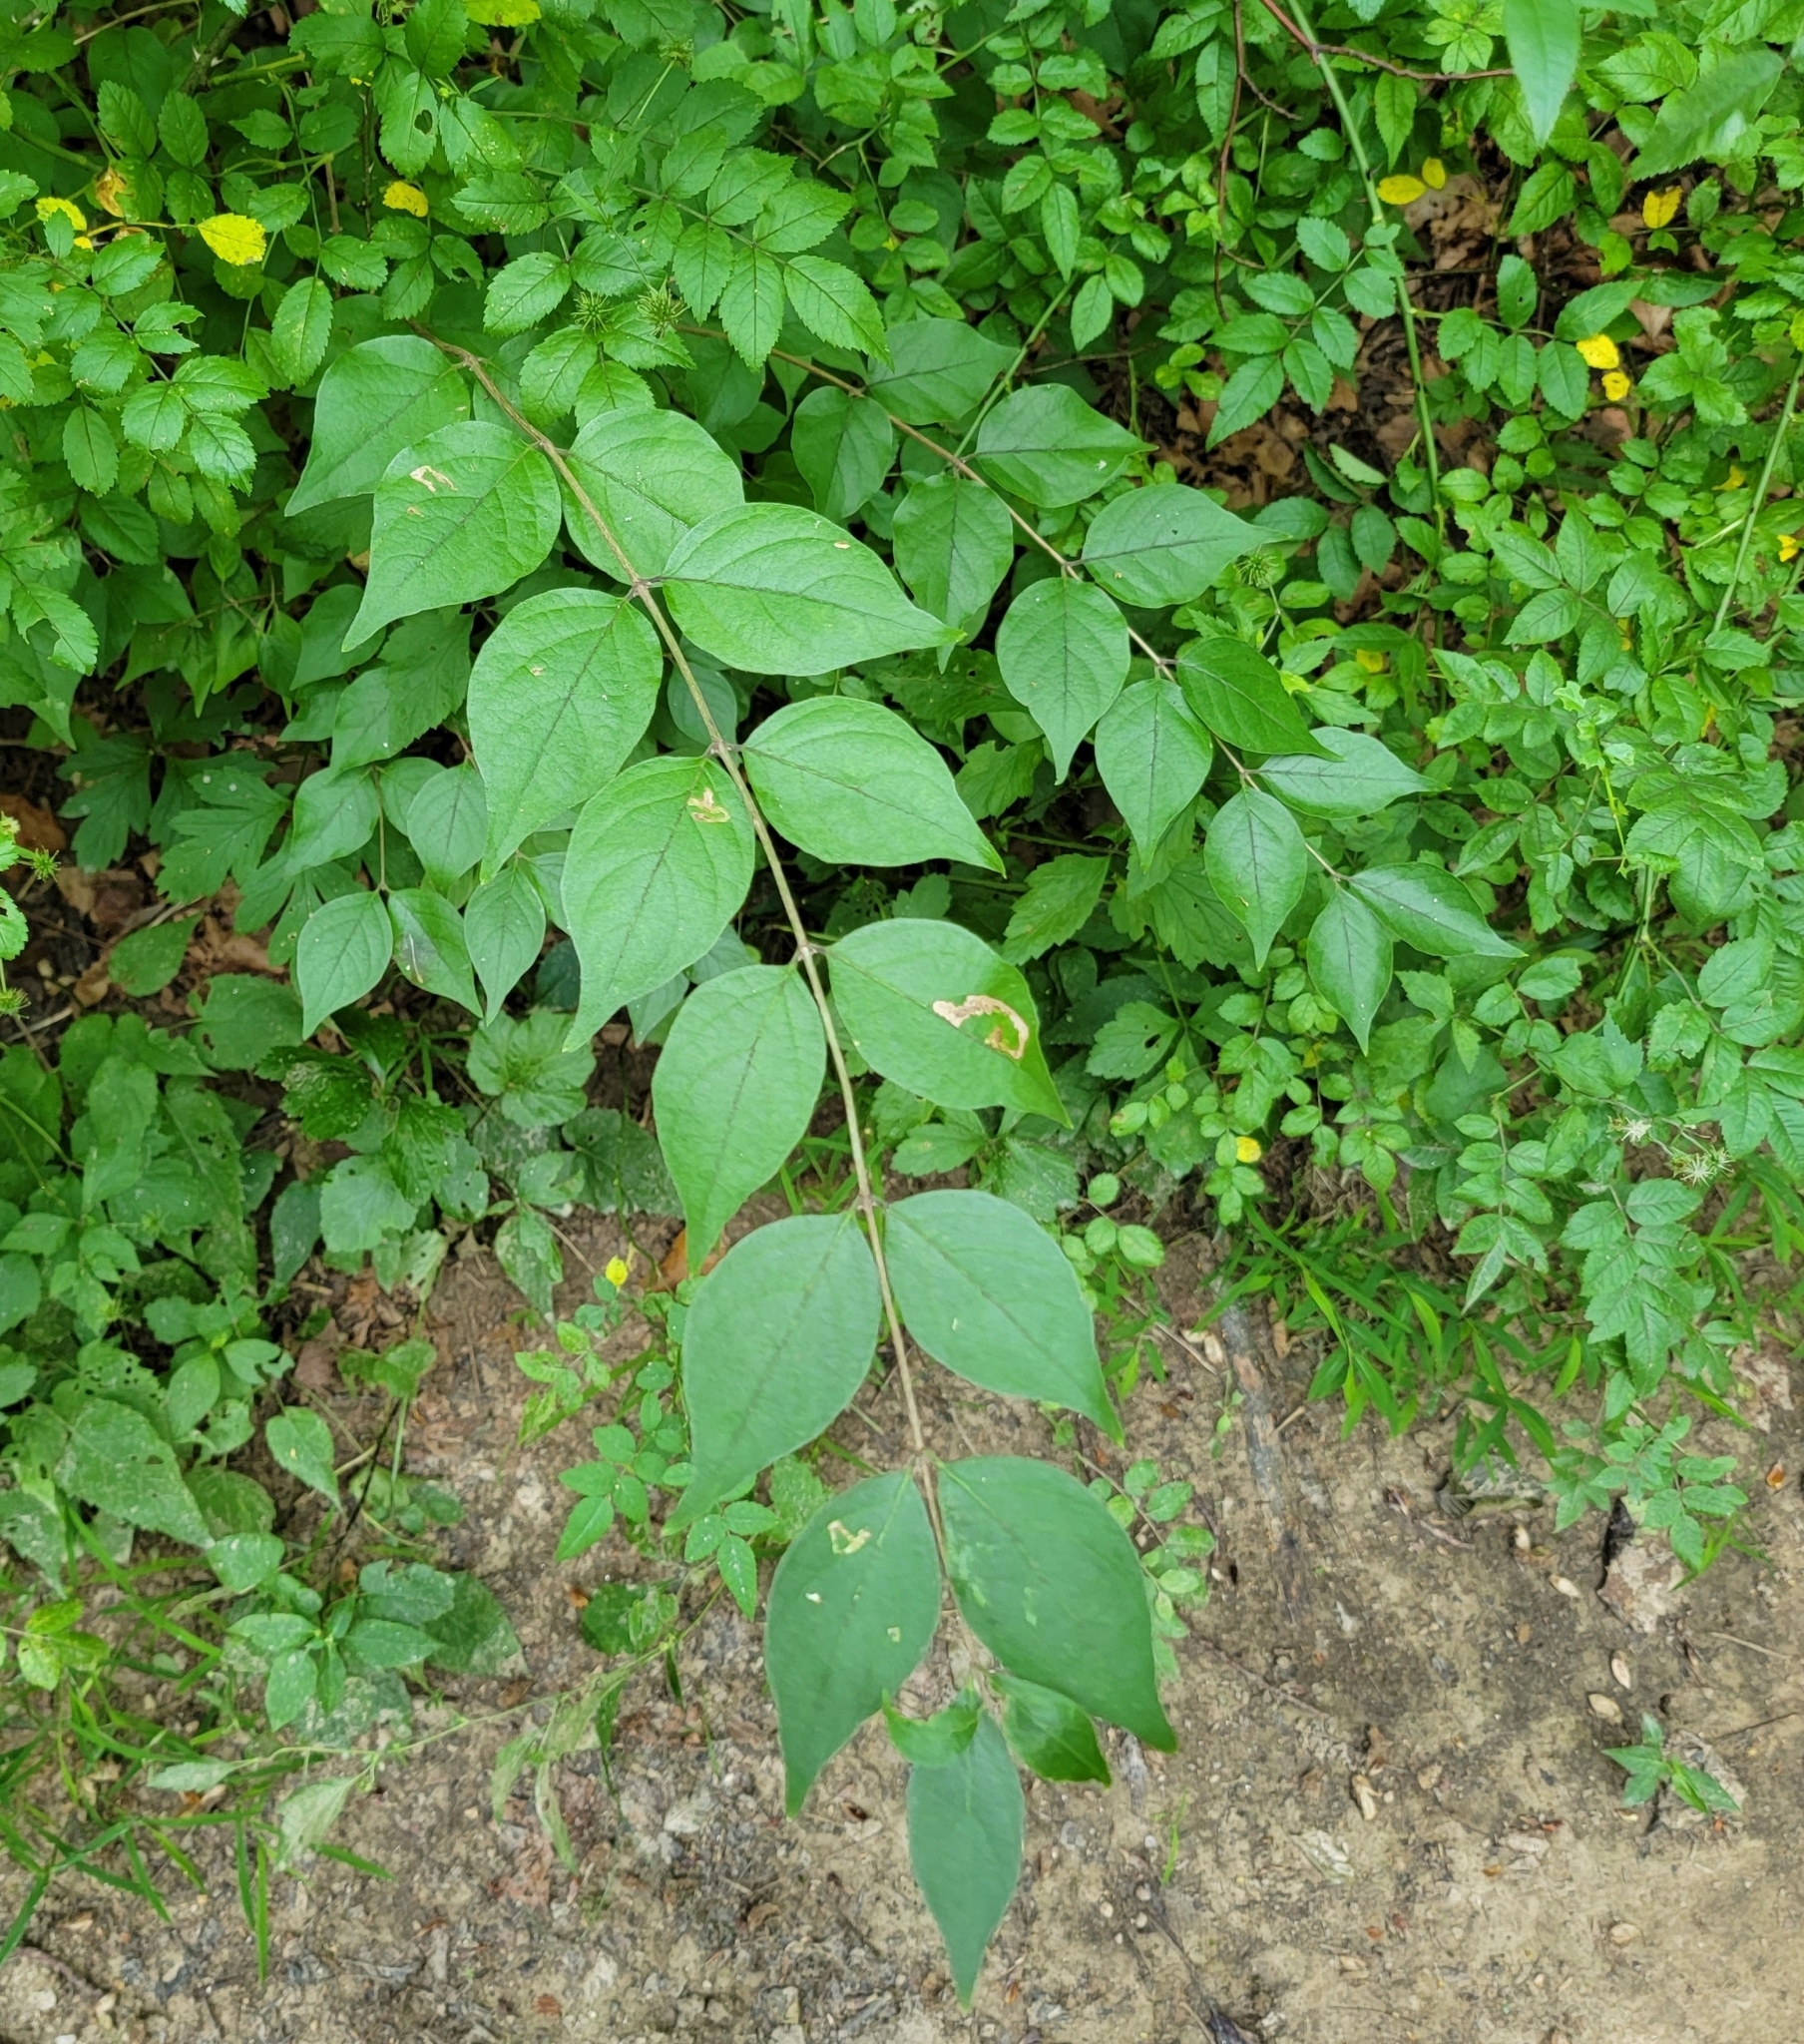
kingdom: Plantae
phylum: Tracheophyta
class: Magnoliopsida
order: Dipsacales
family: Caprifoliaceae
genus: Lonicera
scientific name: Lonicera maackii
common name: Amur honeysuckle
